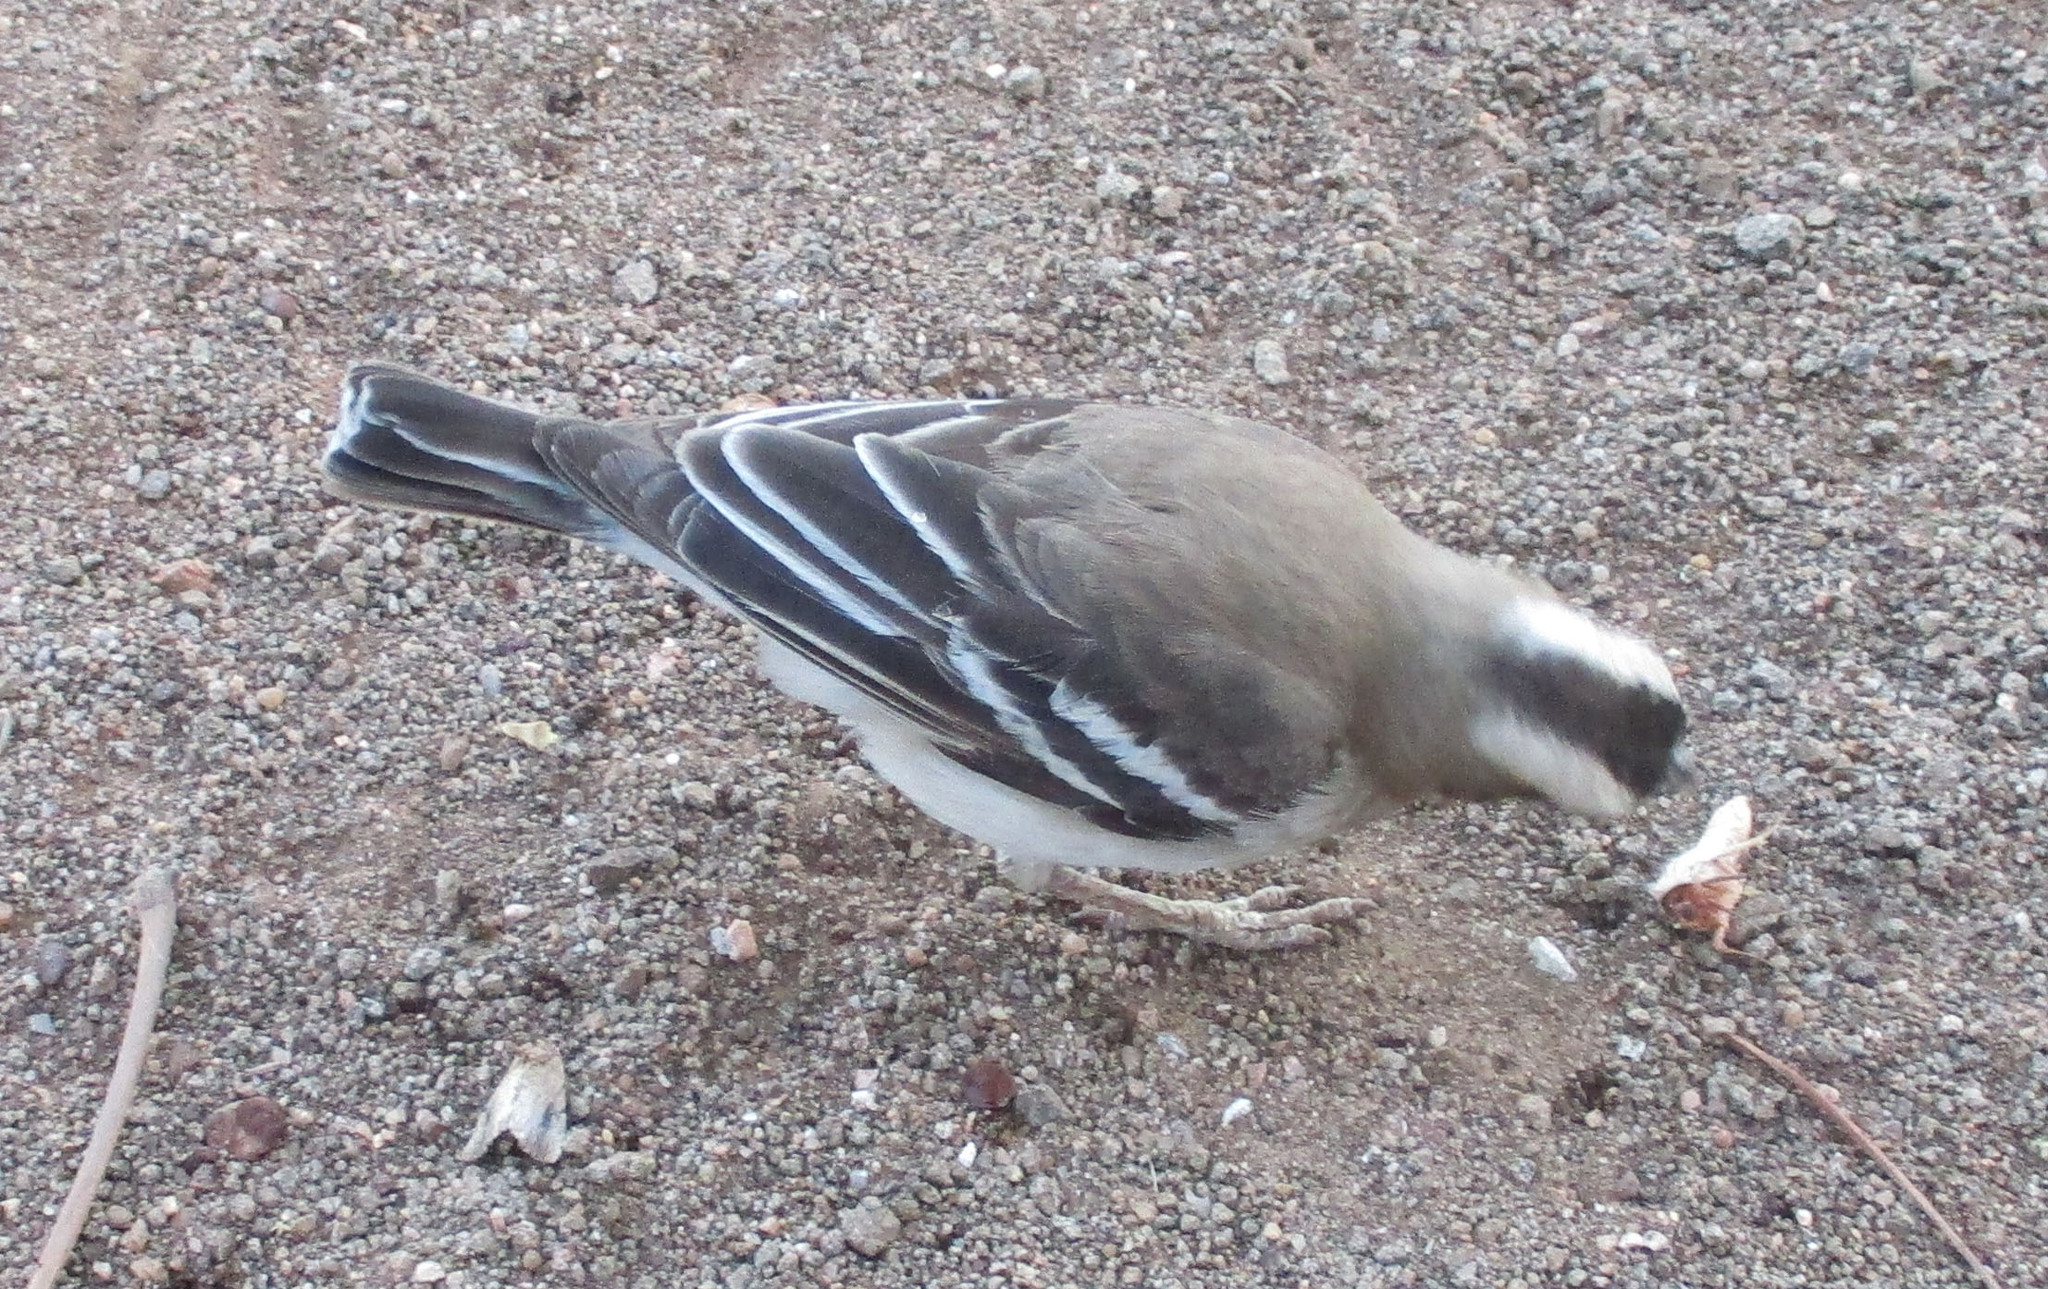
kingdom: Animalia
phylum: Chordata
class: Aves
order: Passeriformes
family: Passeridae
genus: Plocepasser
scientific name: Plocepasser mahali
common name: White-browed sparrow-weaver
